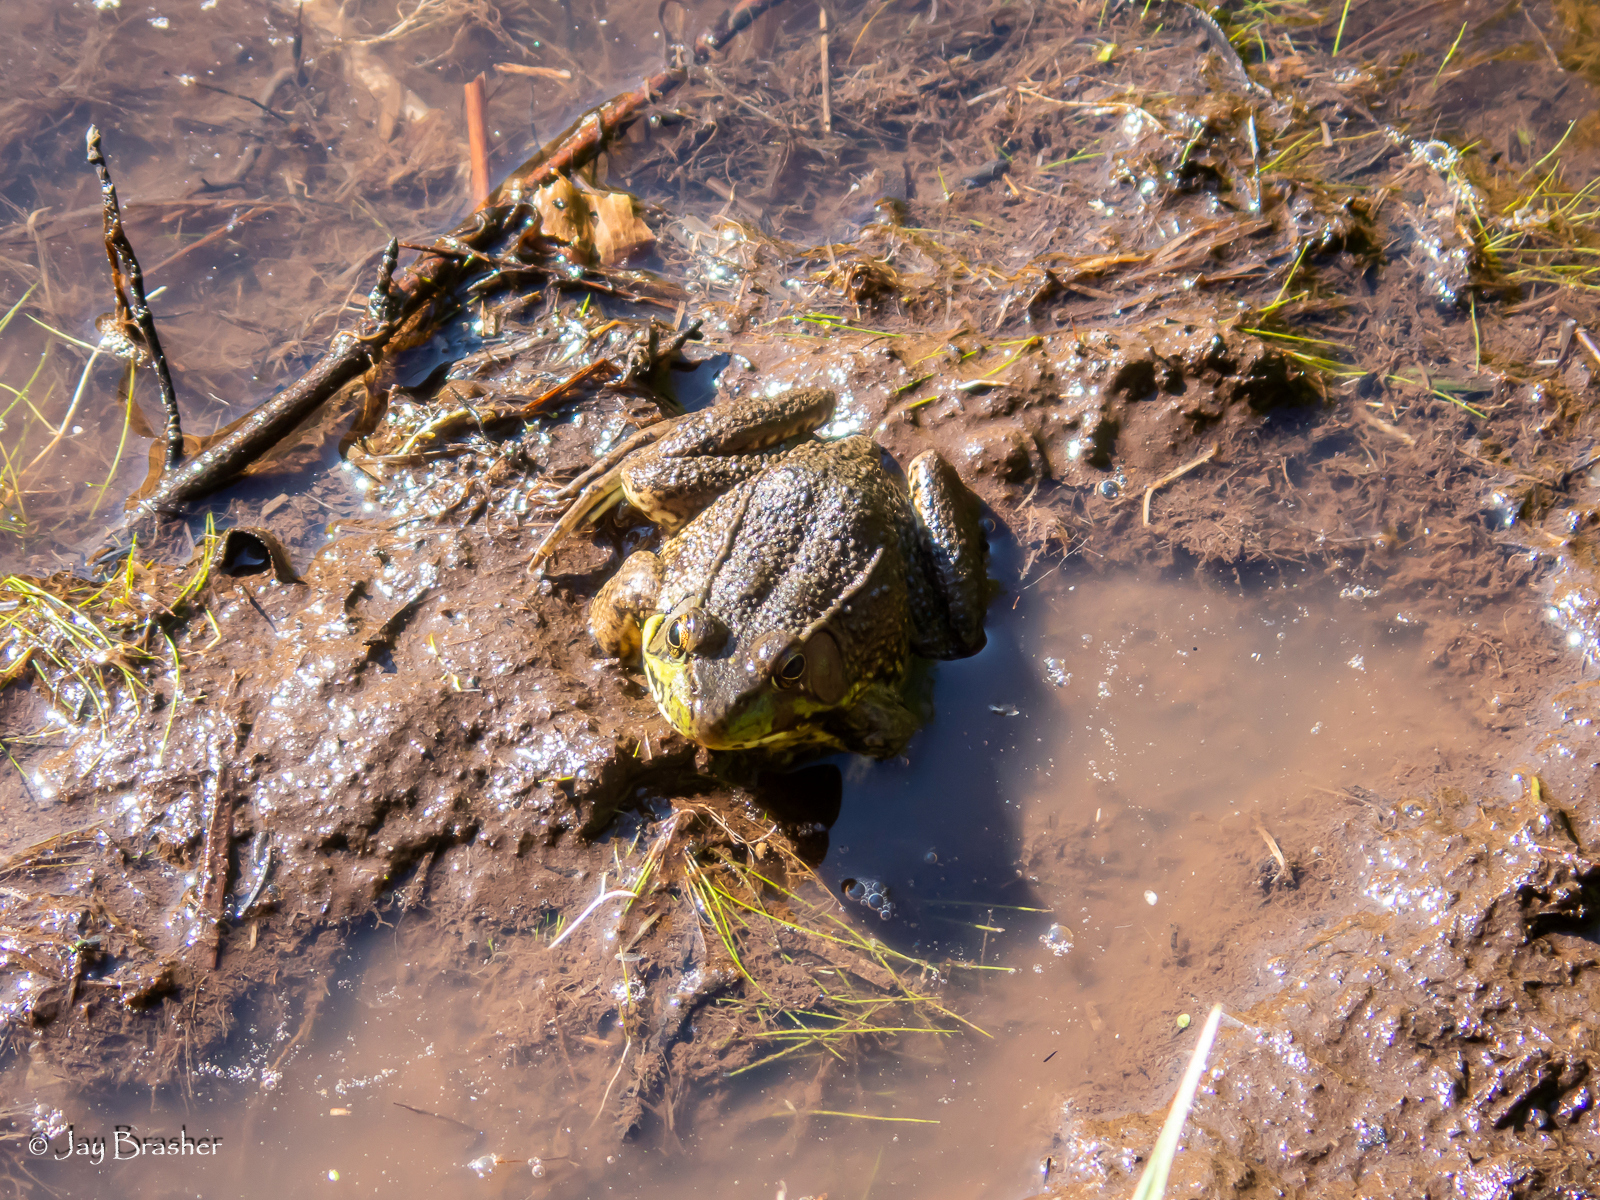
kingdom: Animalia
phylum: Chordata
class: Amphibia
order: Anura
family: Ranidae
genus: Lithobates
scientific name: Lithobates clamitans
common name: Green frog
